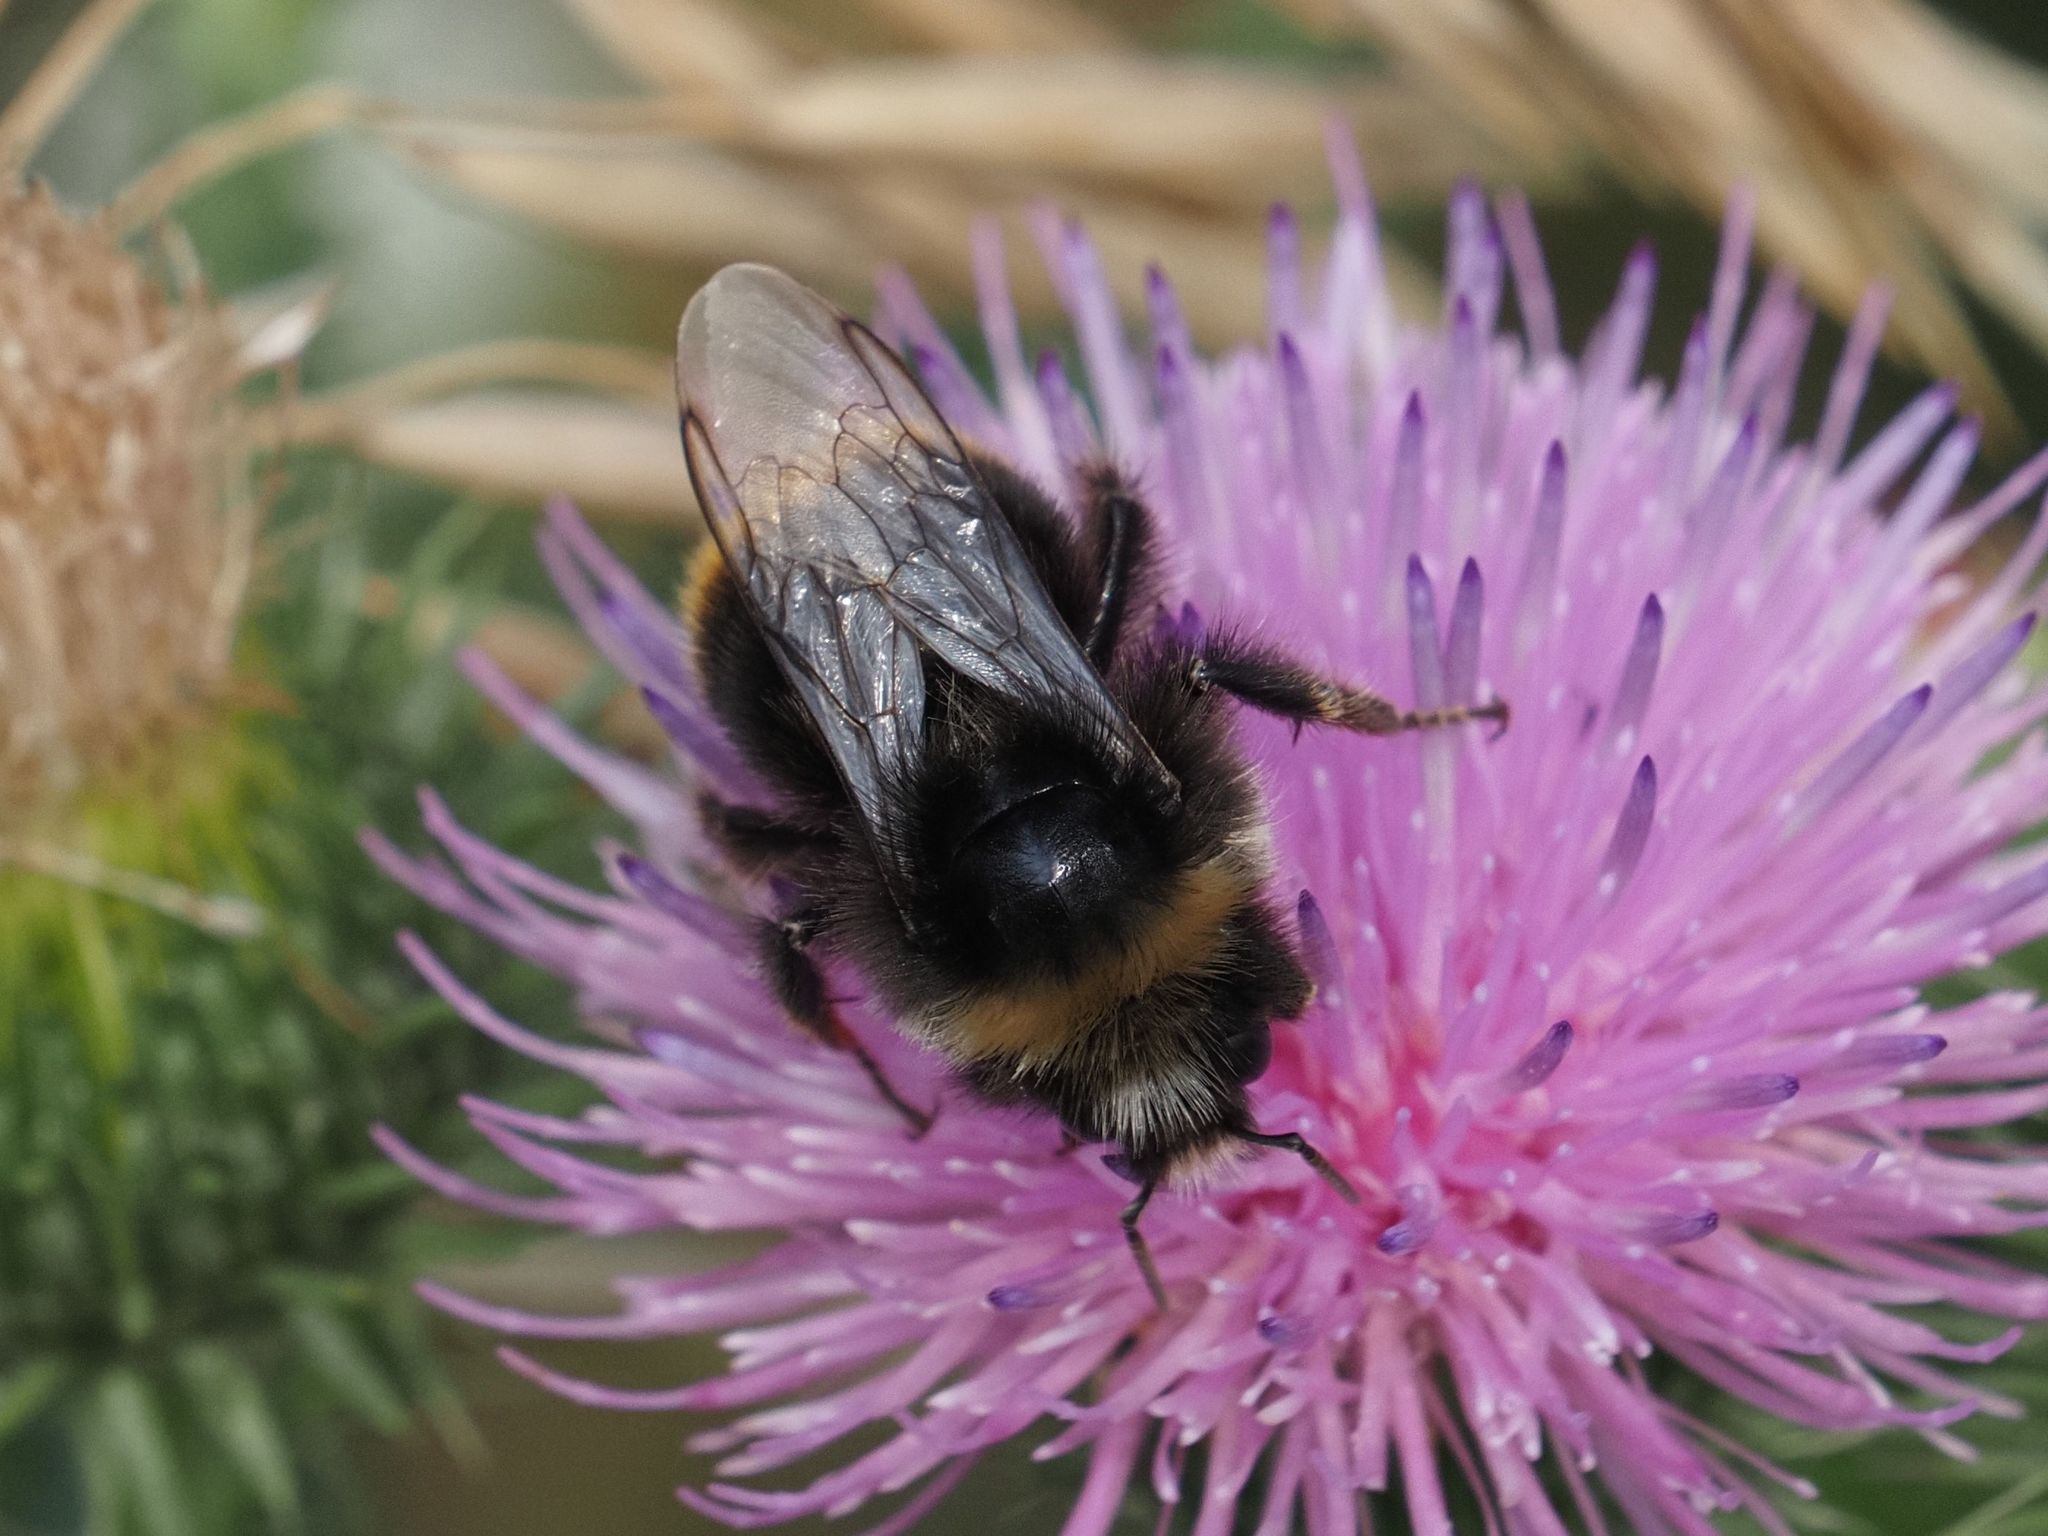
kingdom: Animalia
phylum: Arthropoda
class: Insecta
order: Hymenoptera
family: Apidae
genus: Bombus
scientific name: Bombus lapidarius
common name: Large red-tailed humble-bee
